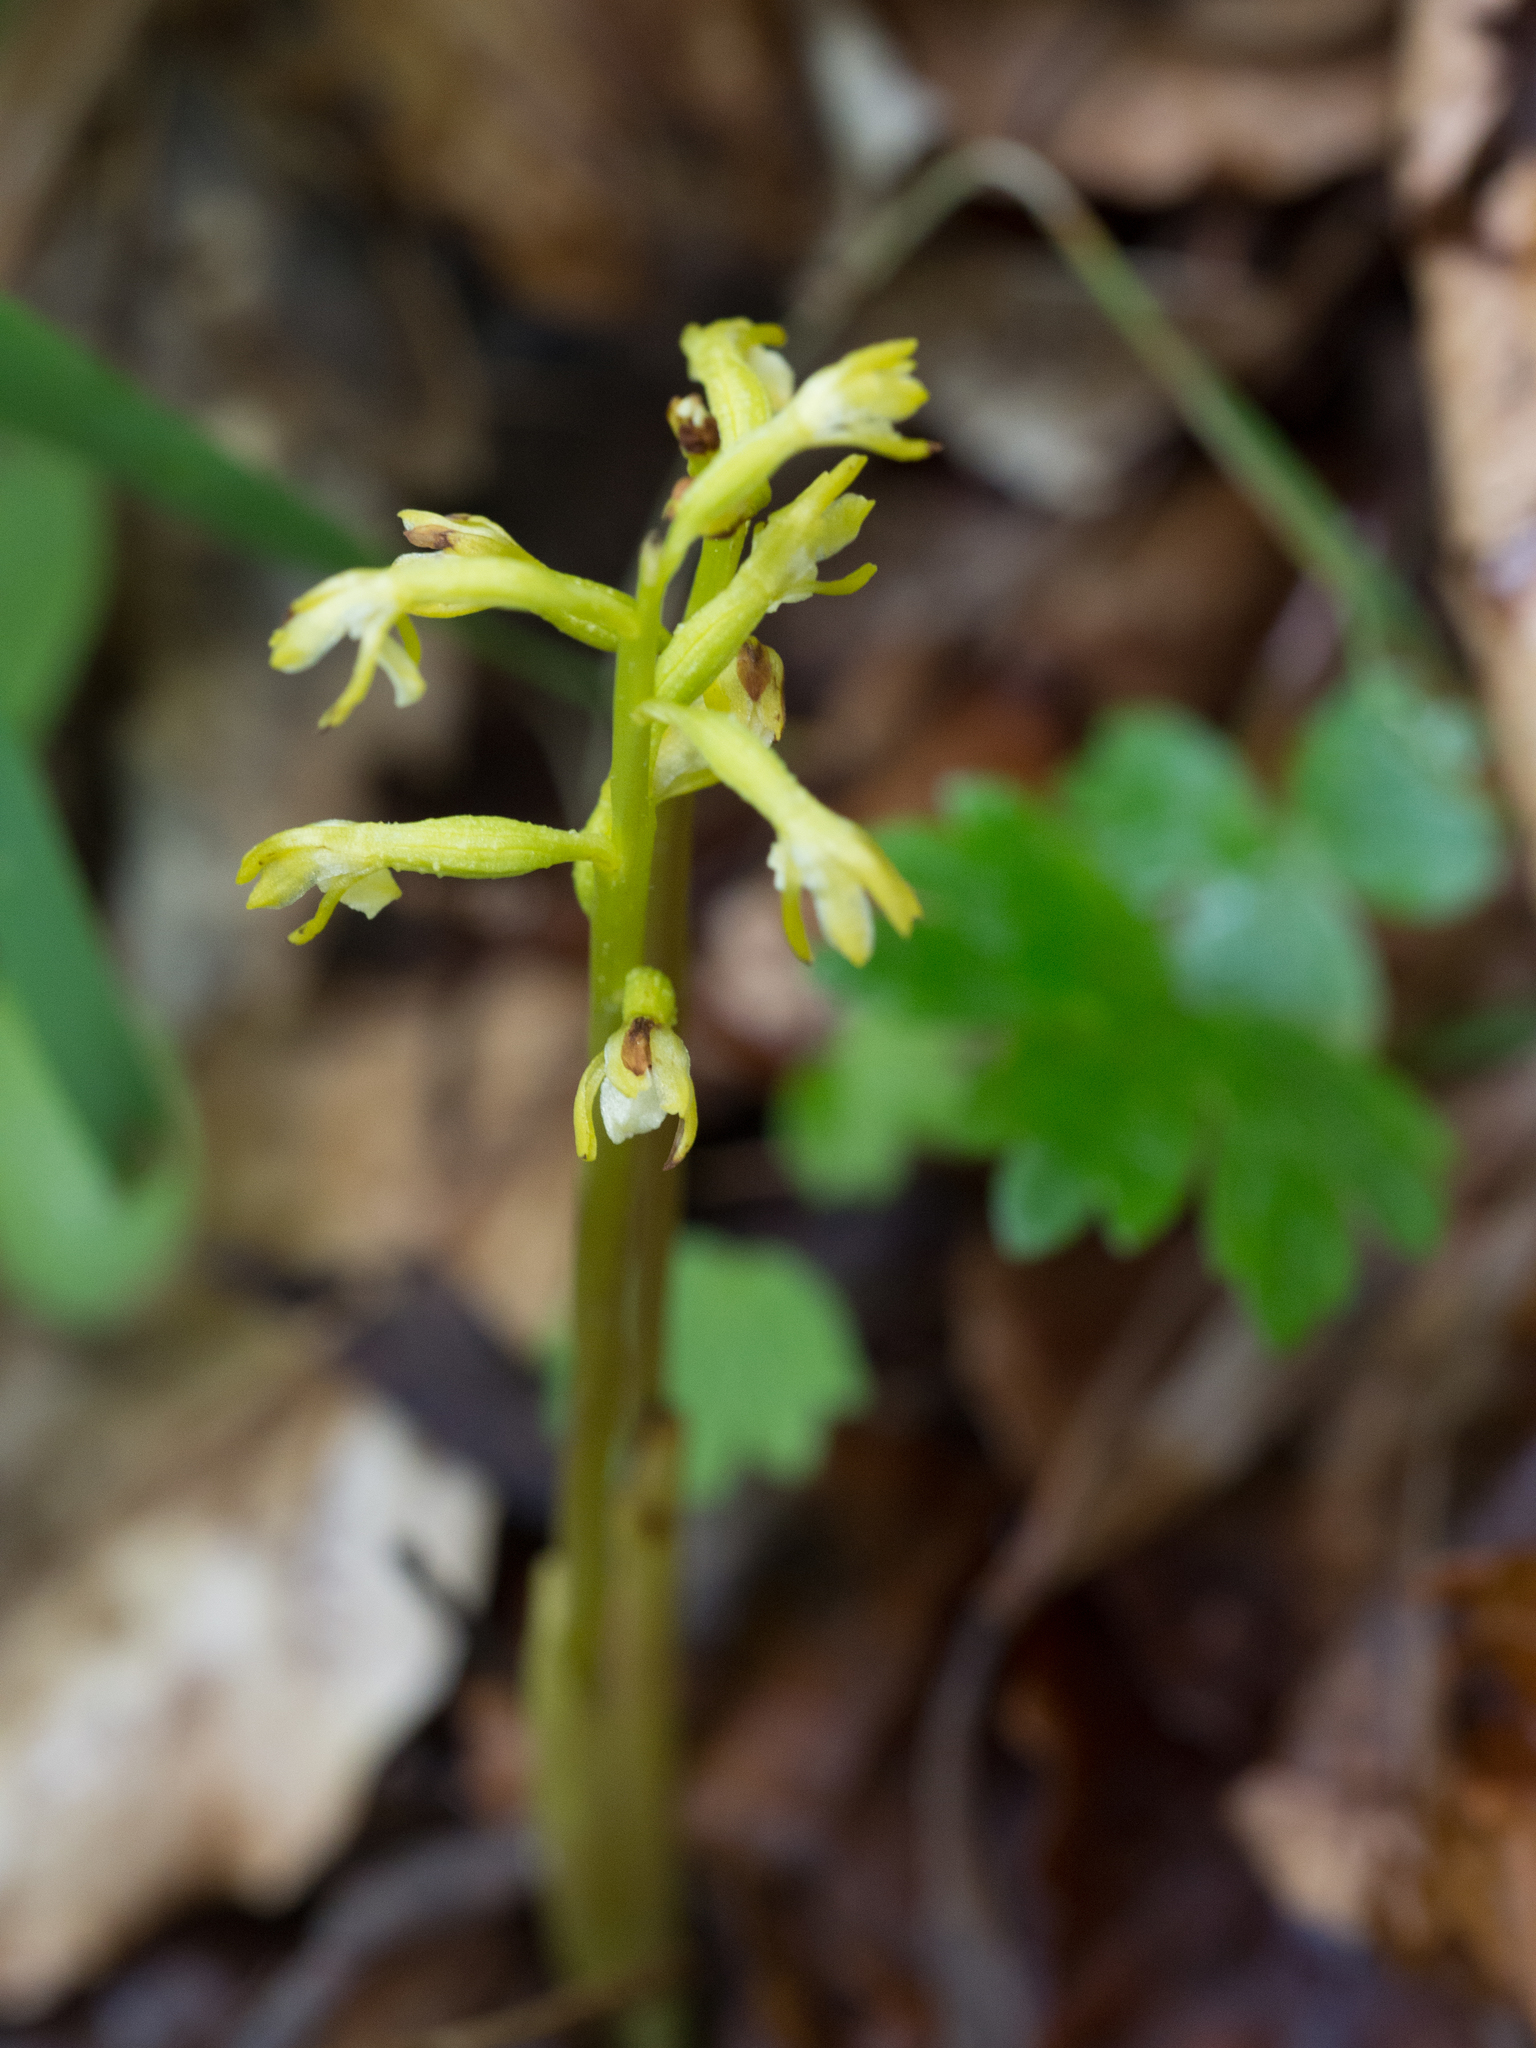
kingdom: Plantae
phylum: Tracheophyta
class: Liliopsida
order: Asparagales
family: Orchidaceae
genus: Corallorhiza
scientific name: Corallorhiza trifida
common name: Yellow coralroot
